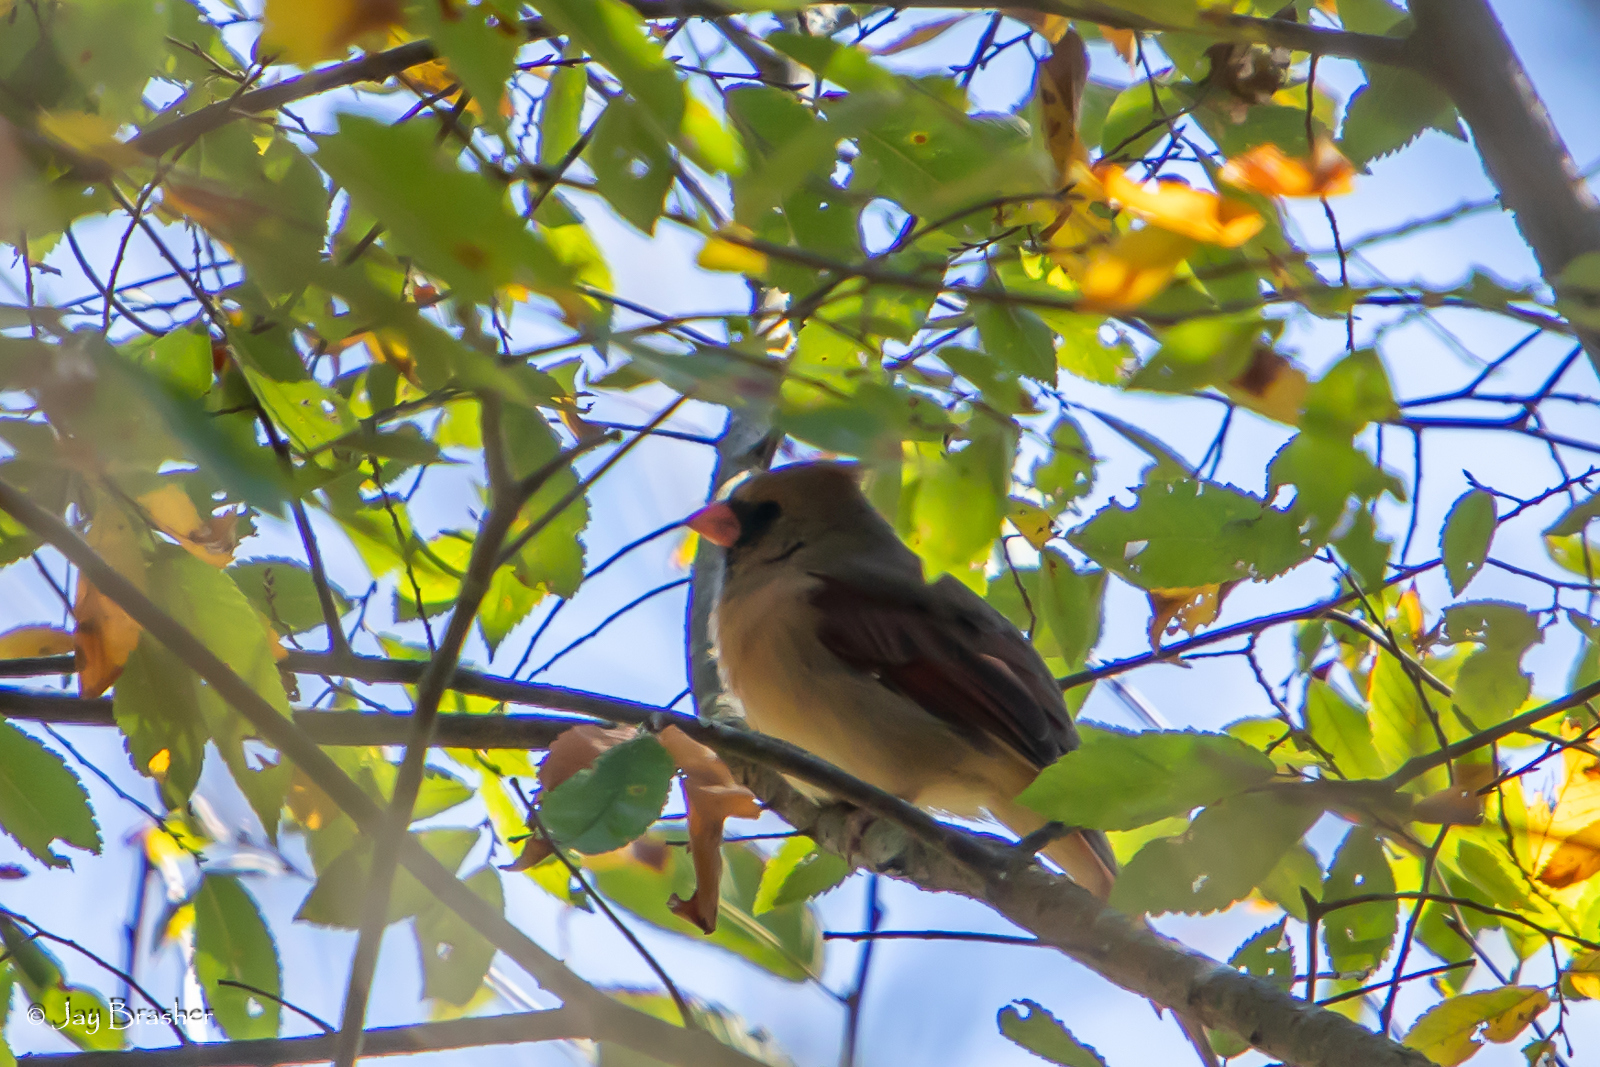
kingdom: Animalia
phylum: Chordata
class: Aves
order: Passeriformes
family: Cardinalidae
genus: Cardinalis
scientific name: Cardinalis cardinalis
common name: Northern cardinal
